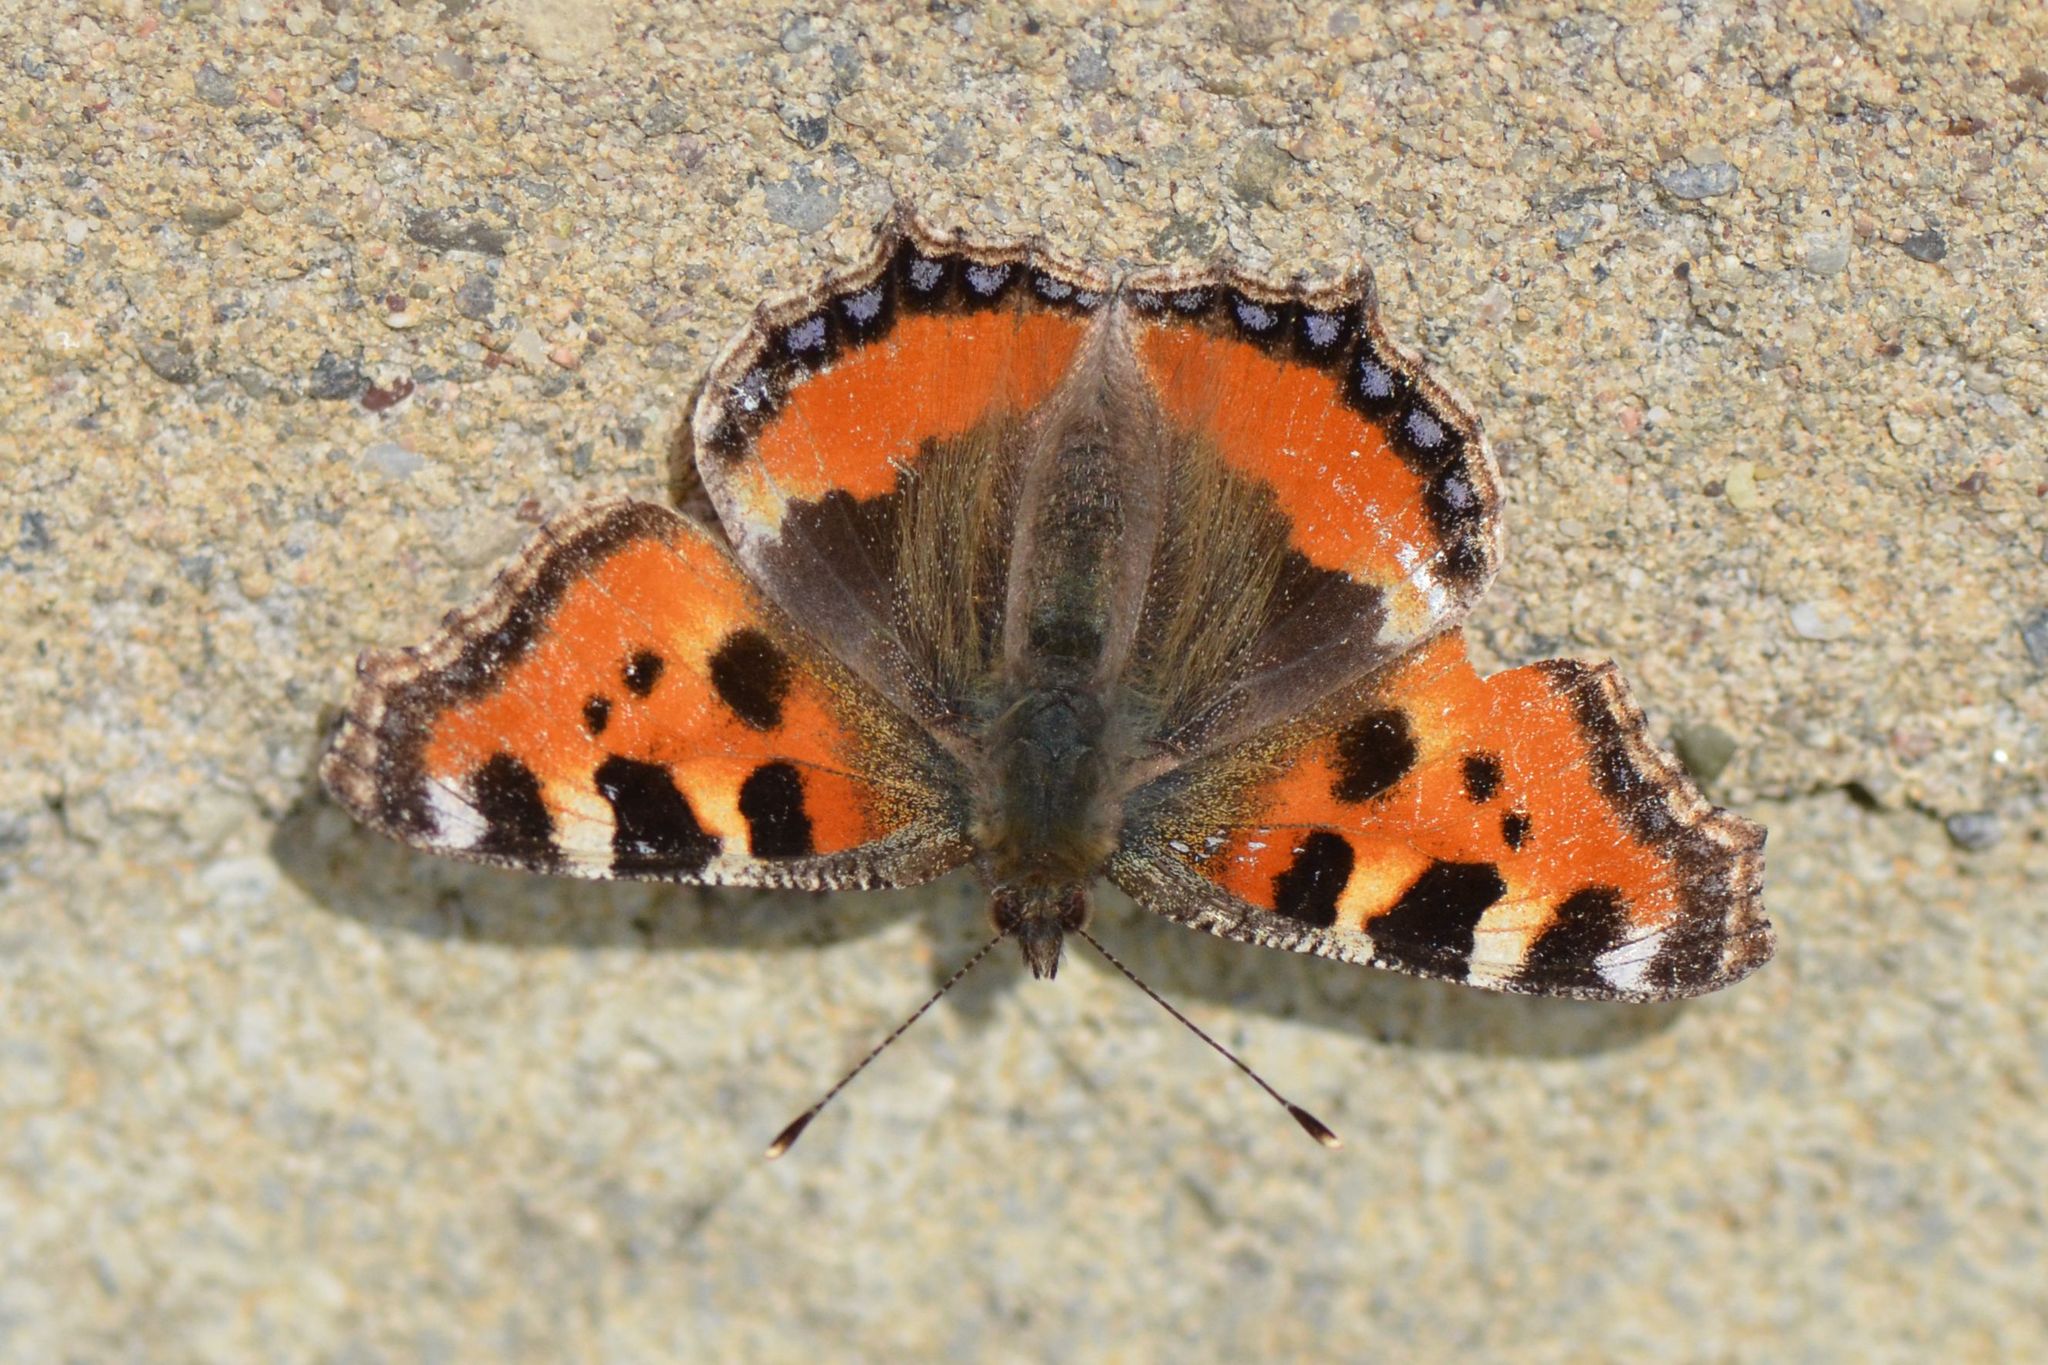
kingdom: Animalia
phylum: Arthropoda
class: Insecta
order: Lepidoptera
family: Nymphalidae
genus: Aglais
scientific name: Aglais urticae
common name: Small tortoiseshell
